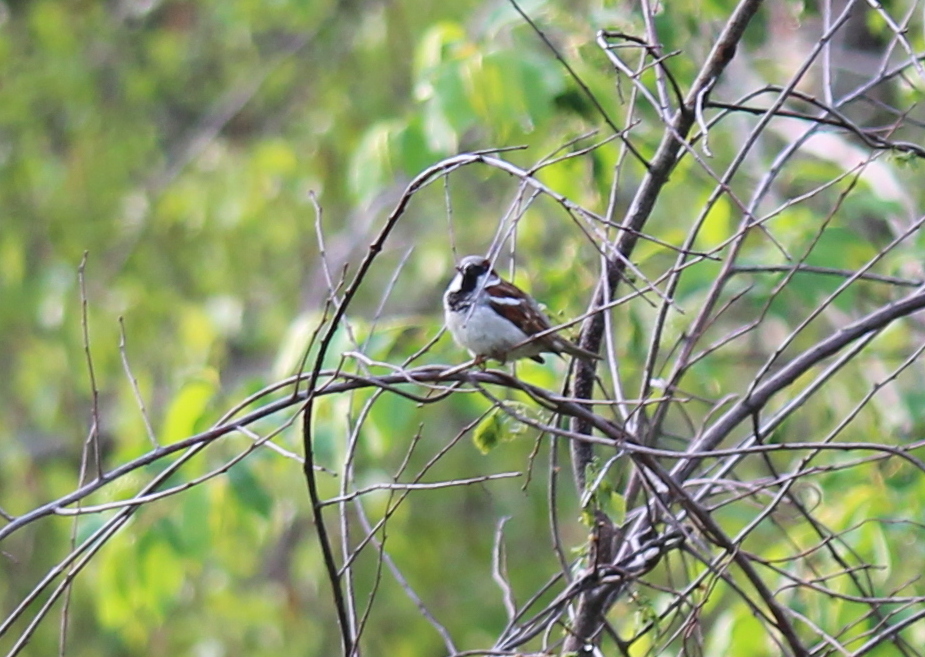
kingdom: Animalia
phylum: Chordata
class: Aves
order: Passeriformes
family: Passeridae
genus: Passer
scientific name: Passer domesticus
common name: House sparrow
